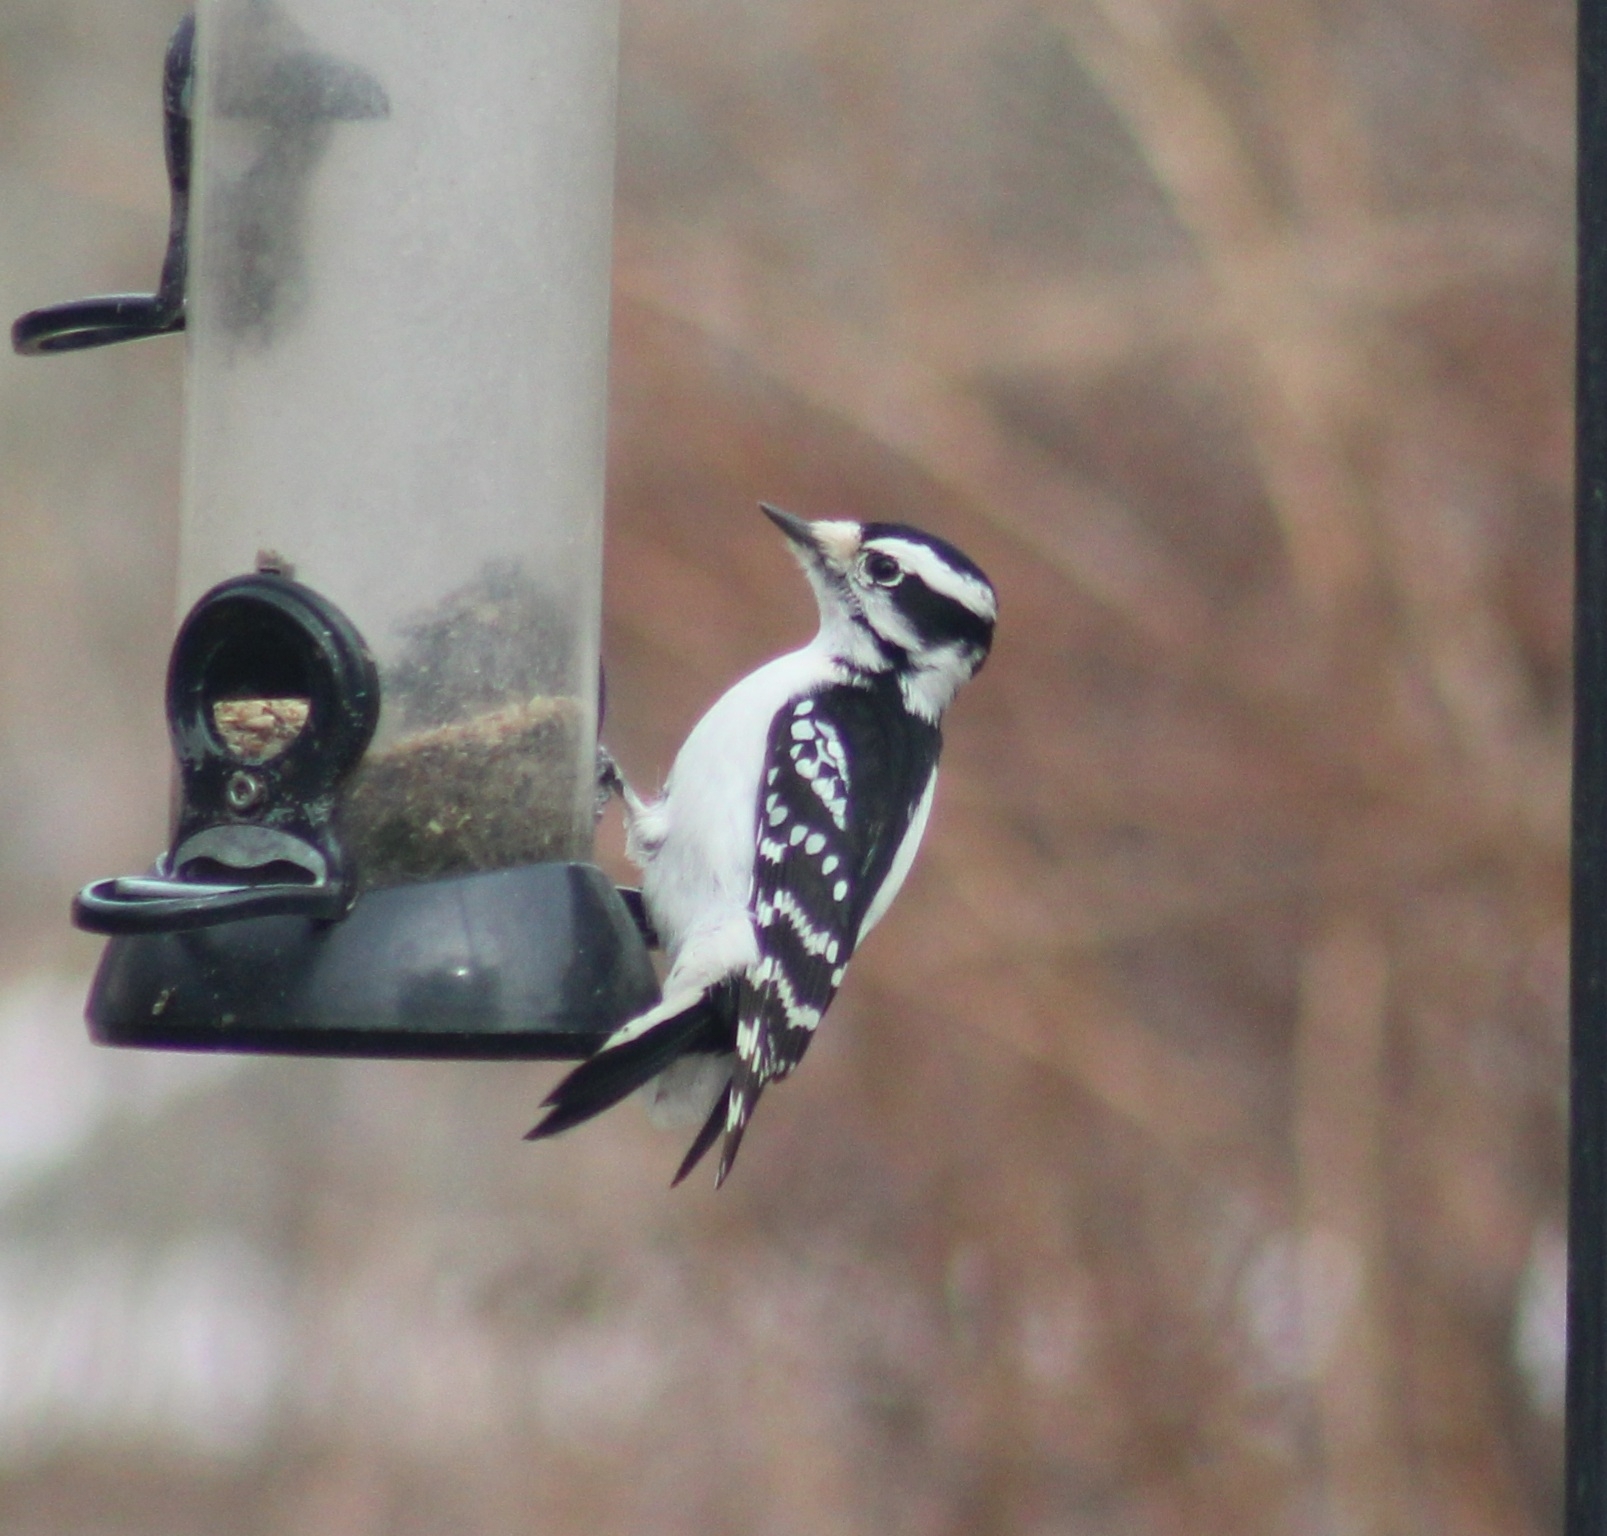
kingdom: Animalia
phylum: Chordata
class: Aves
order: Piciformes
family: Picidae
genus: Dryobates
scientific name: Dryobates pubescens
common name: Downy woodpecker
